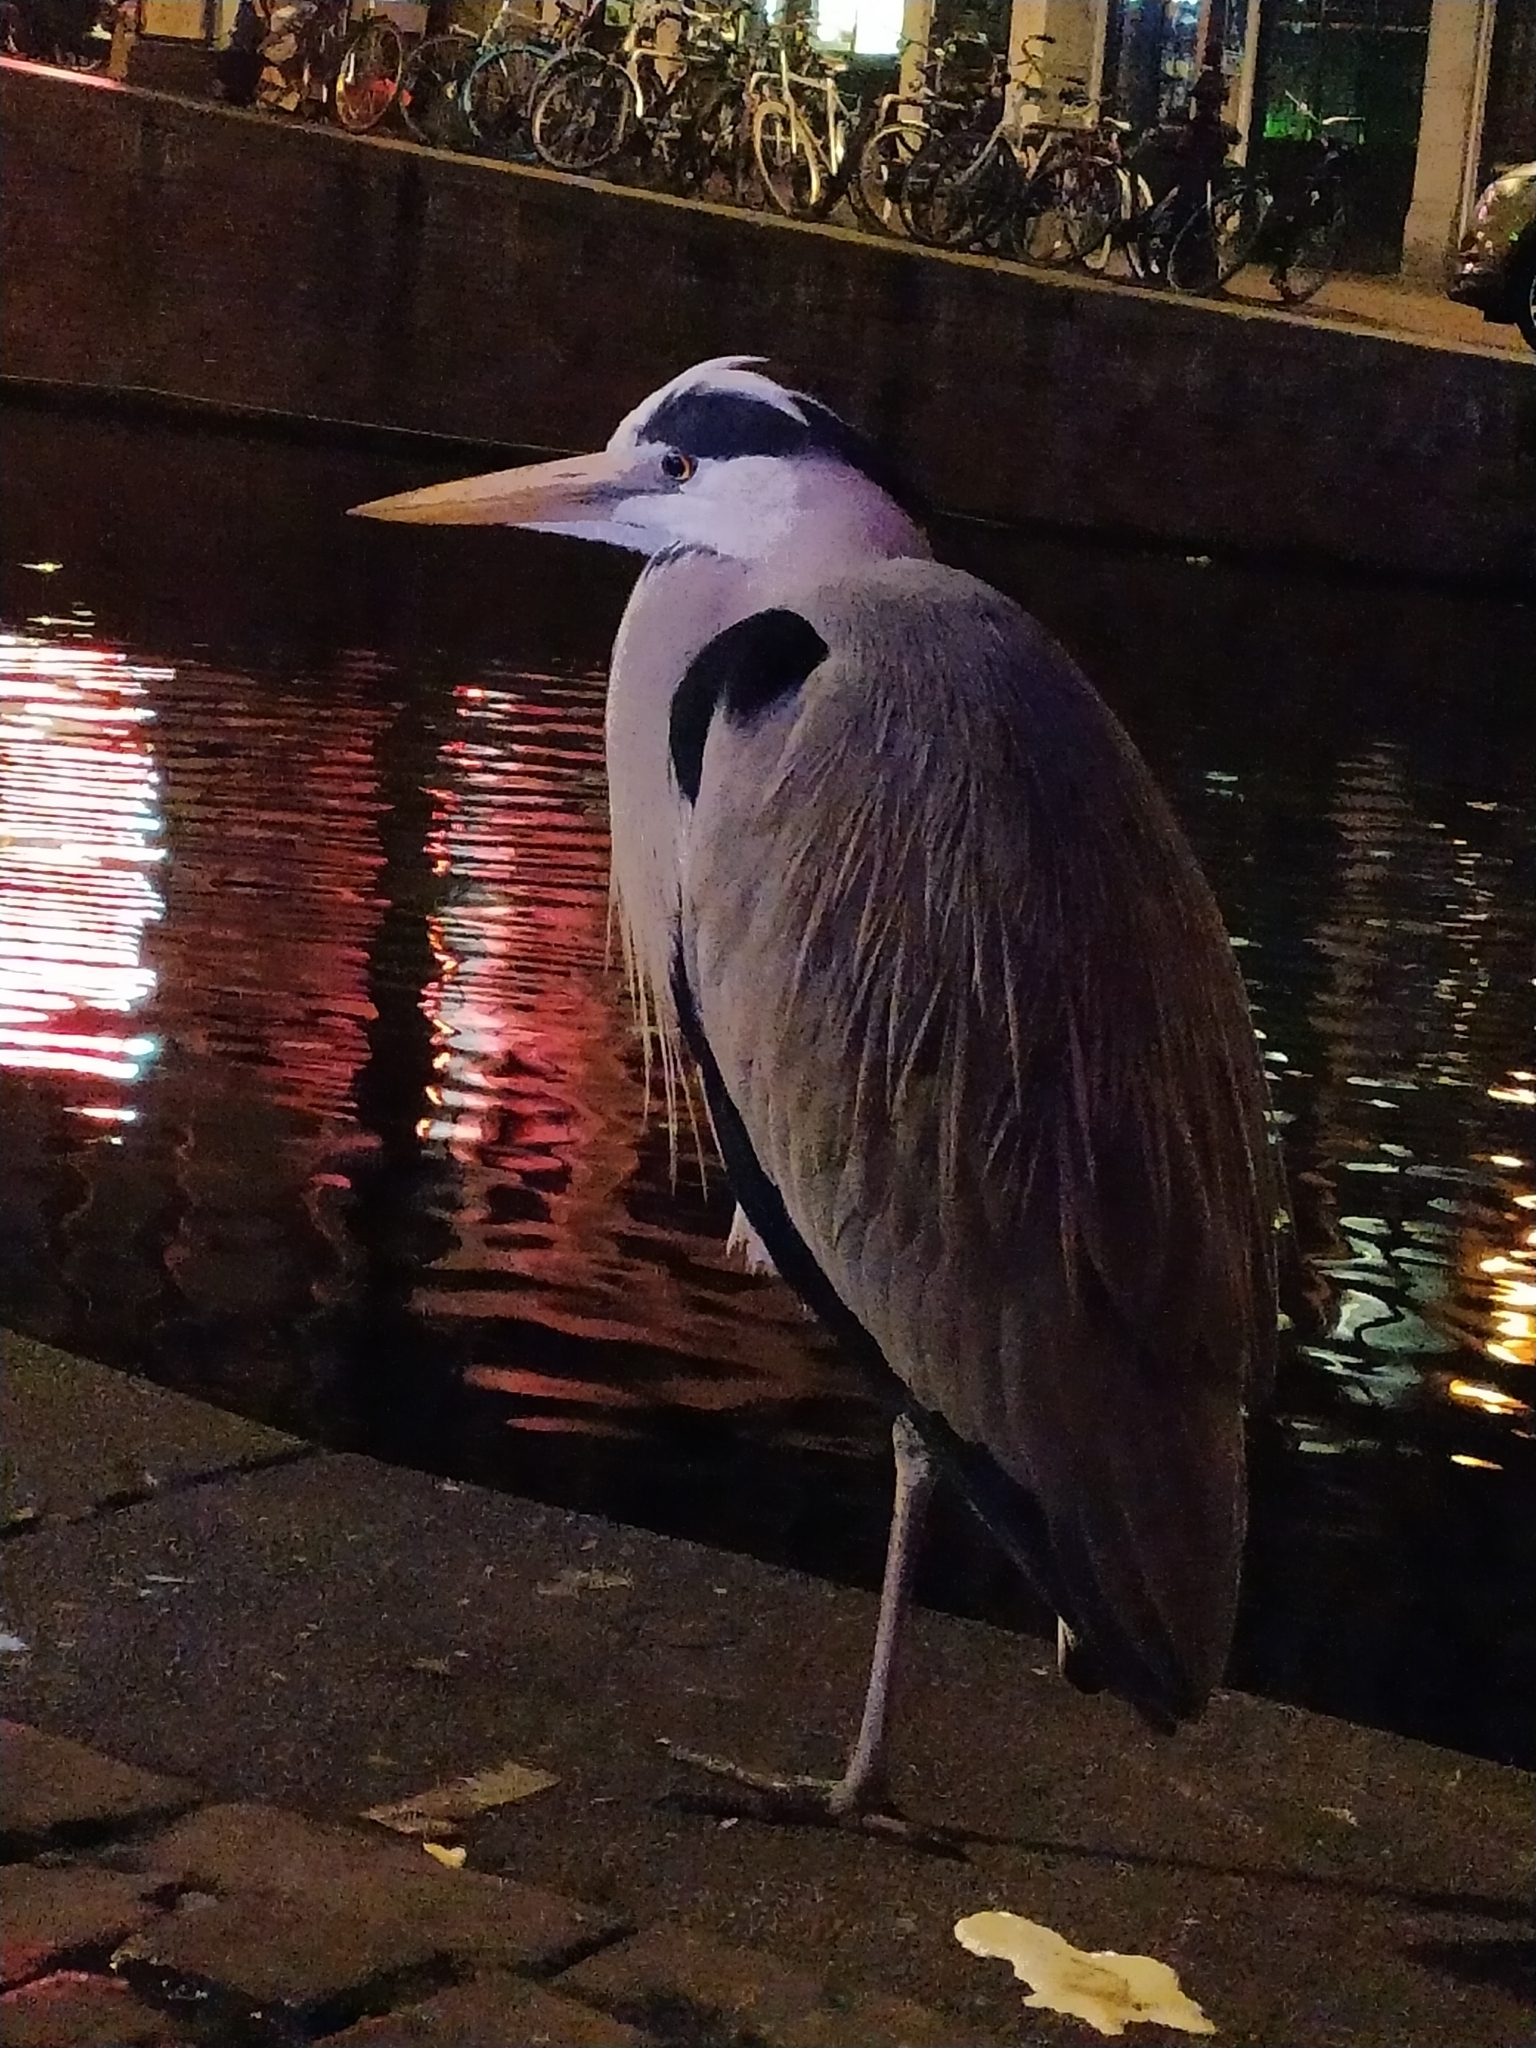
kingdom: Animalia
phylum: Chordata
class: Aves
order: Pelecaniformes
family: Ardeidae
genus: Ardea
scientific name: Ardea cinerea
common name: Grey heron
